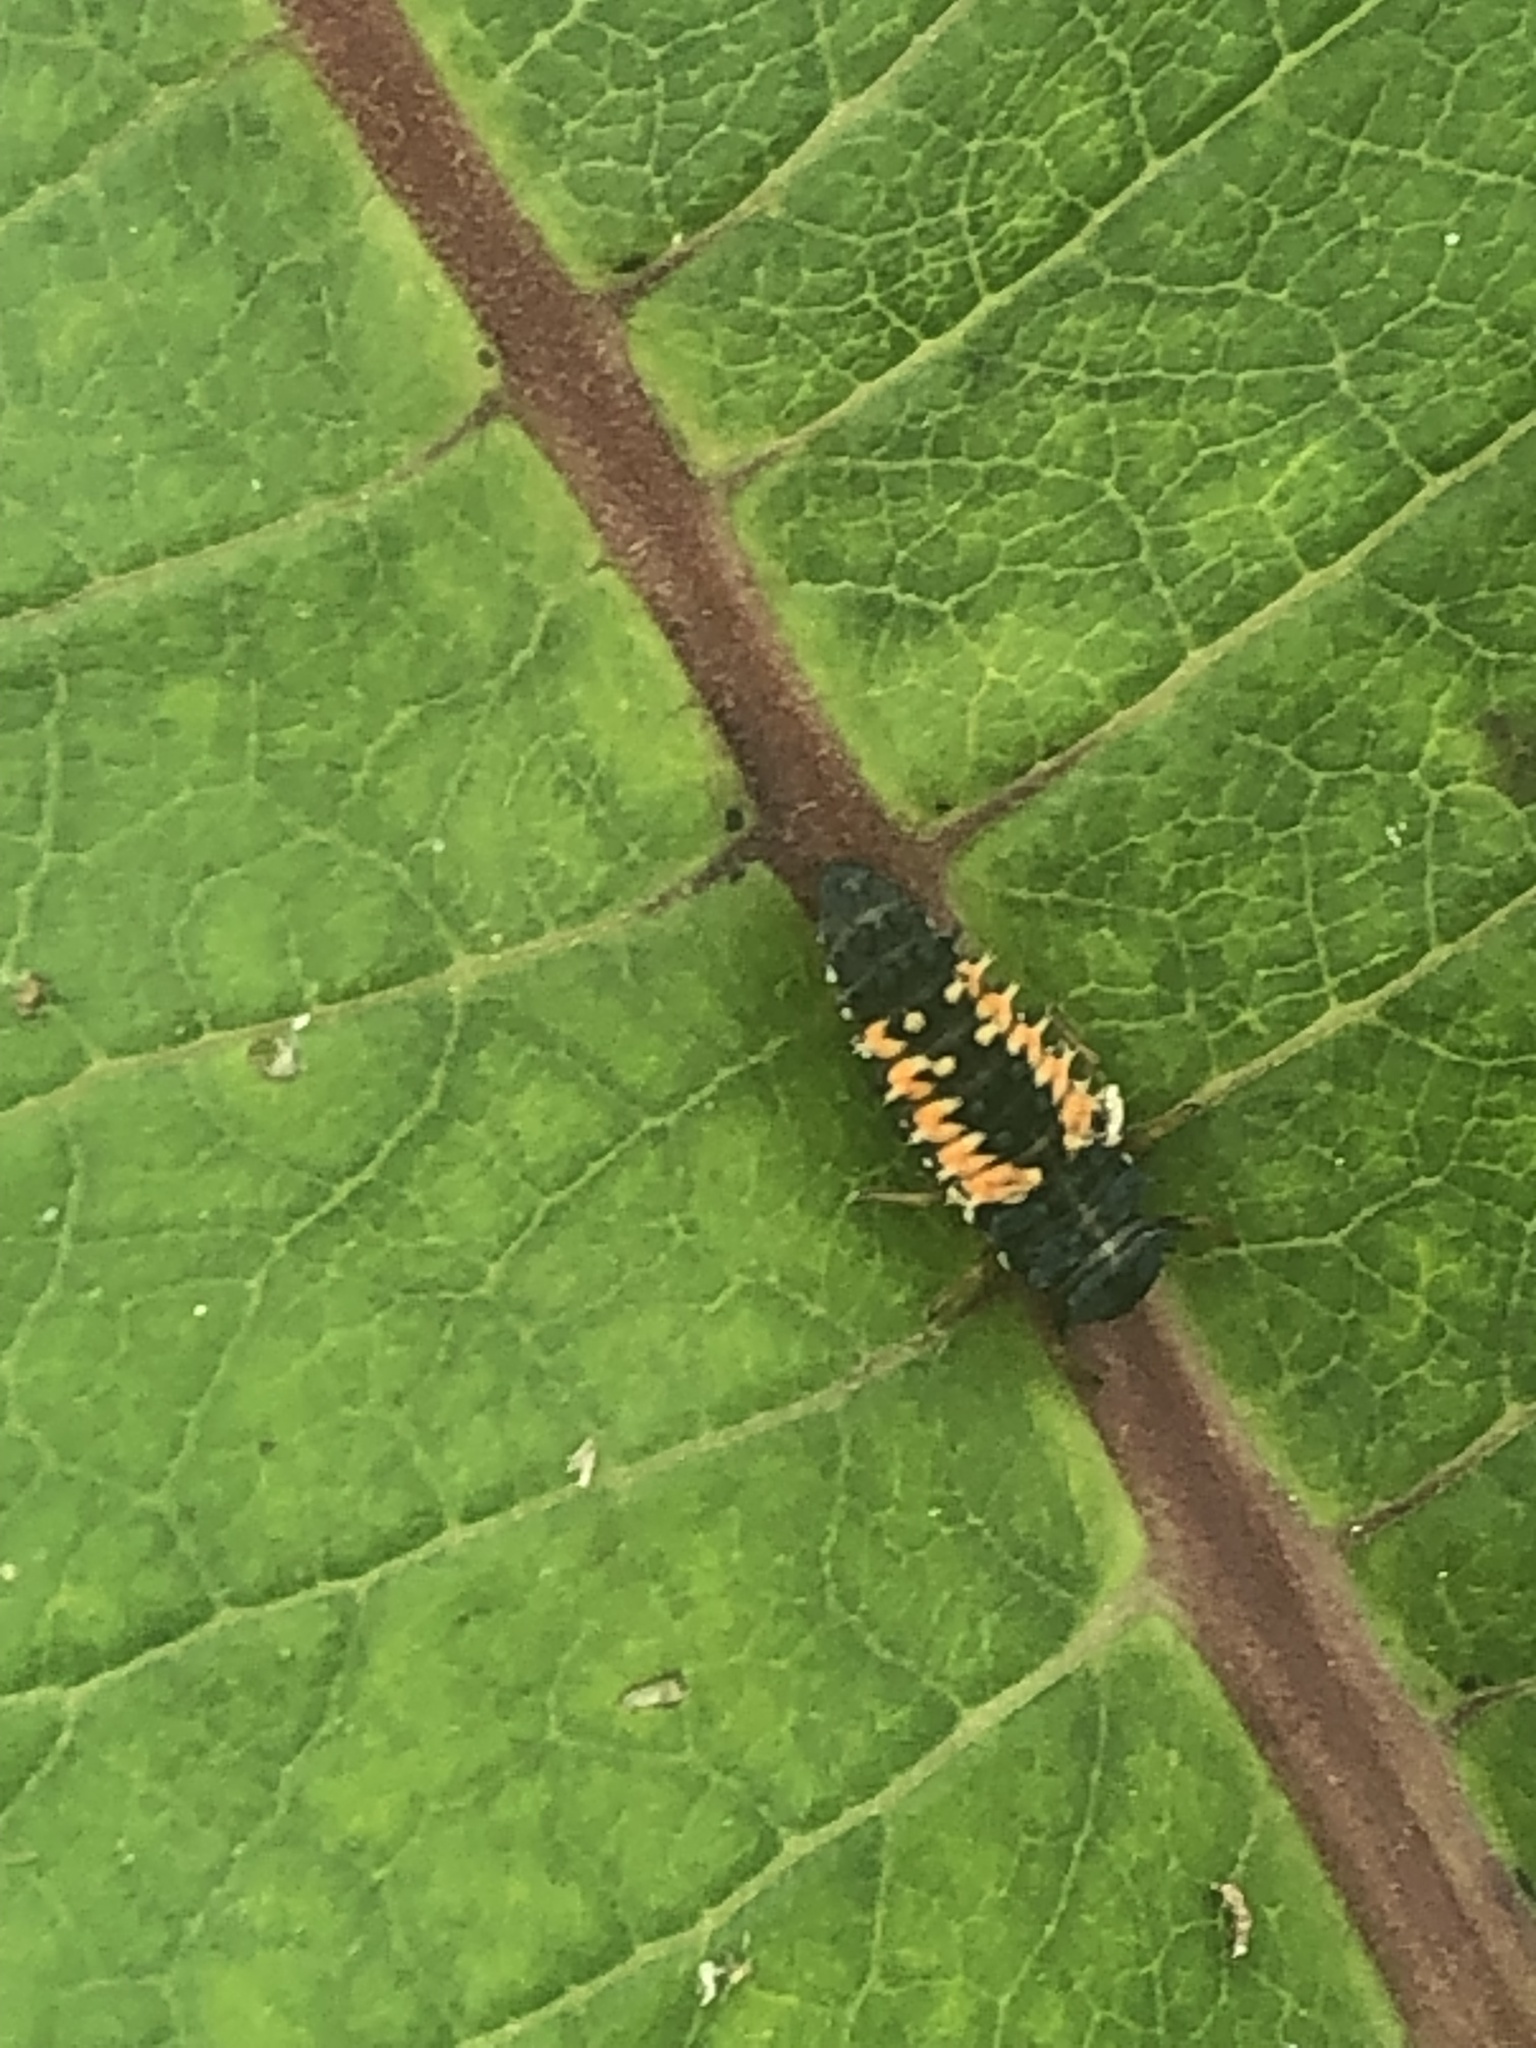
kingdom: Animalia
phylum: Arthropoda
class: Insecta
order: Coleoptera
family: Coccinellidae
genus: Harmonia
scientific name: Harmonia axyridis
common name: Harlequin ladybird
